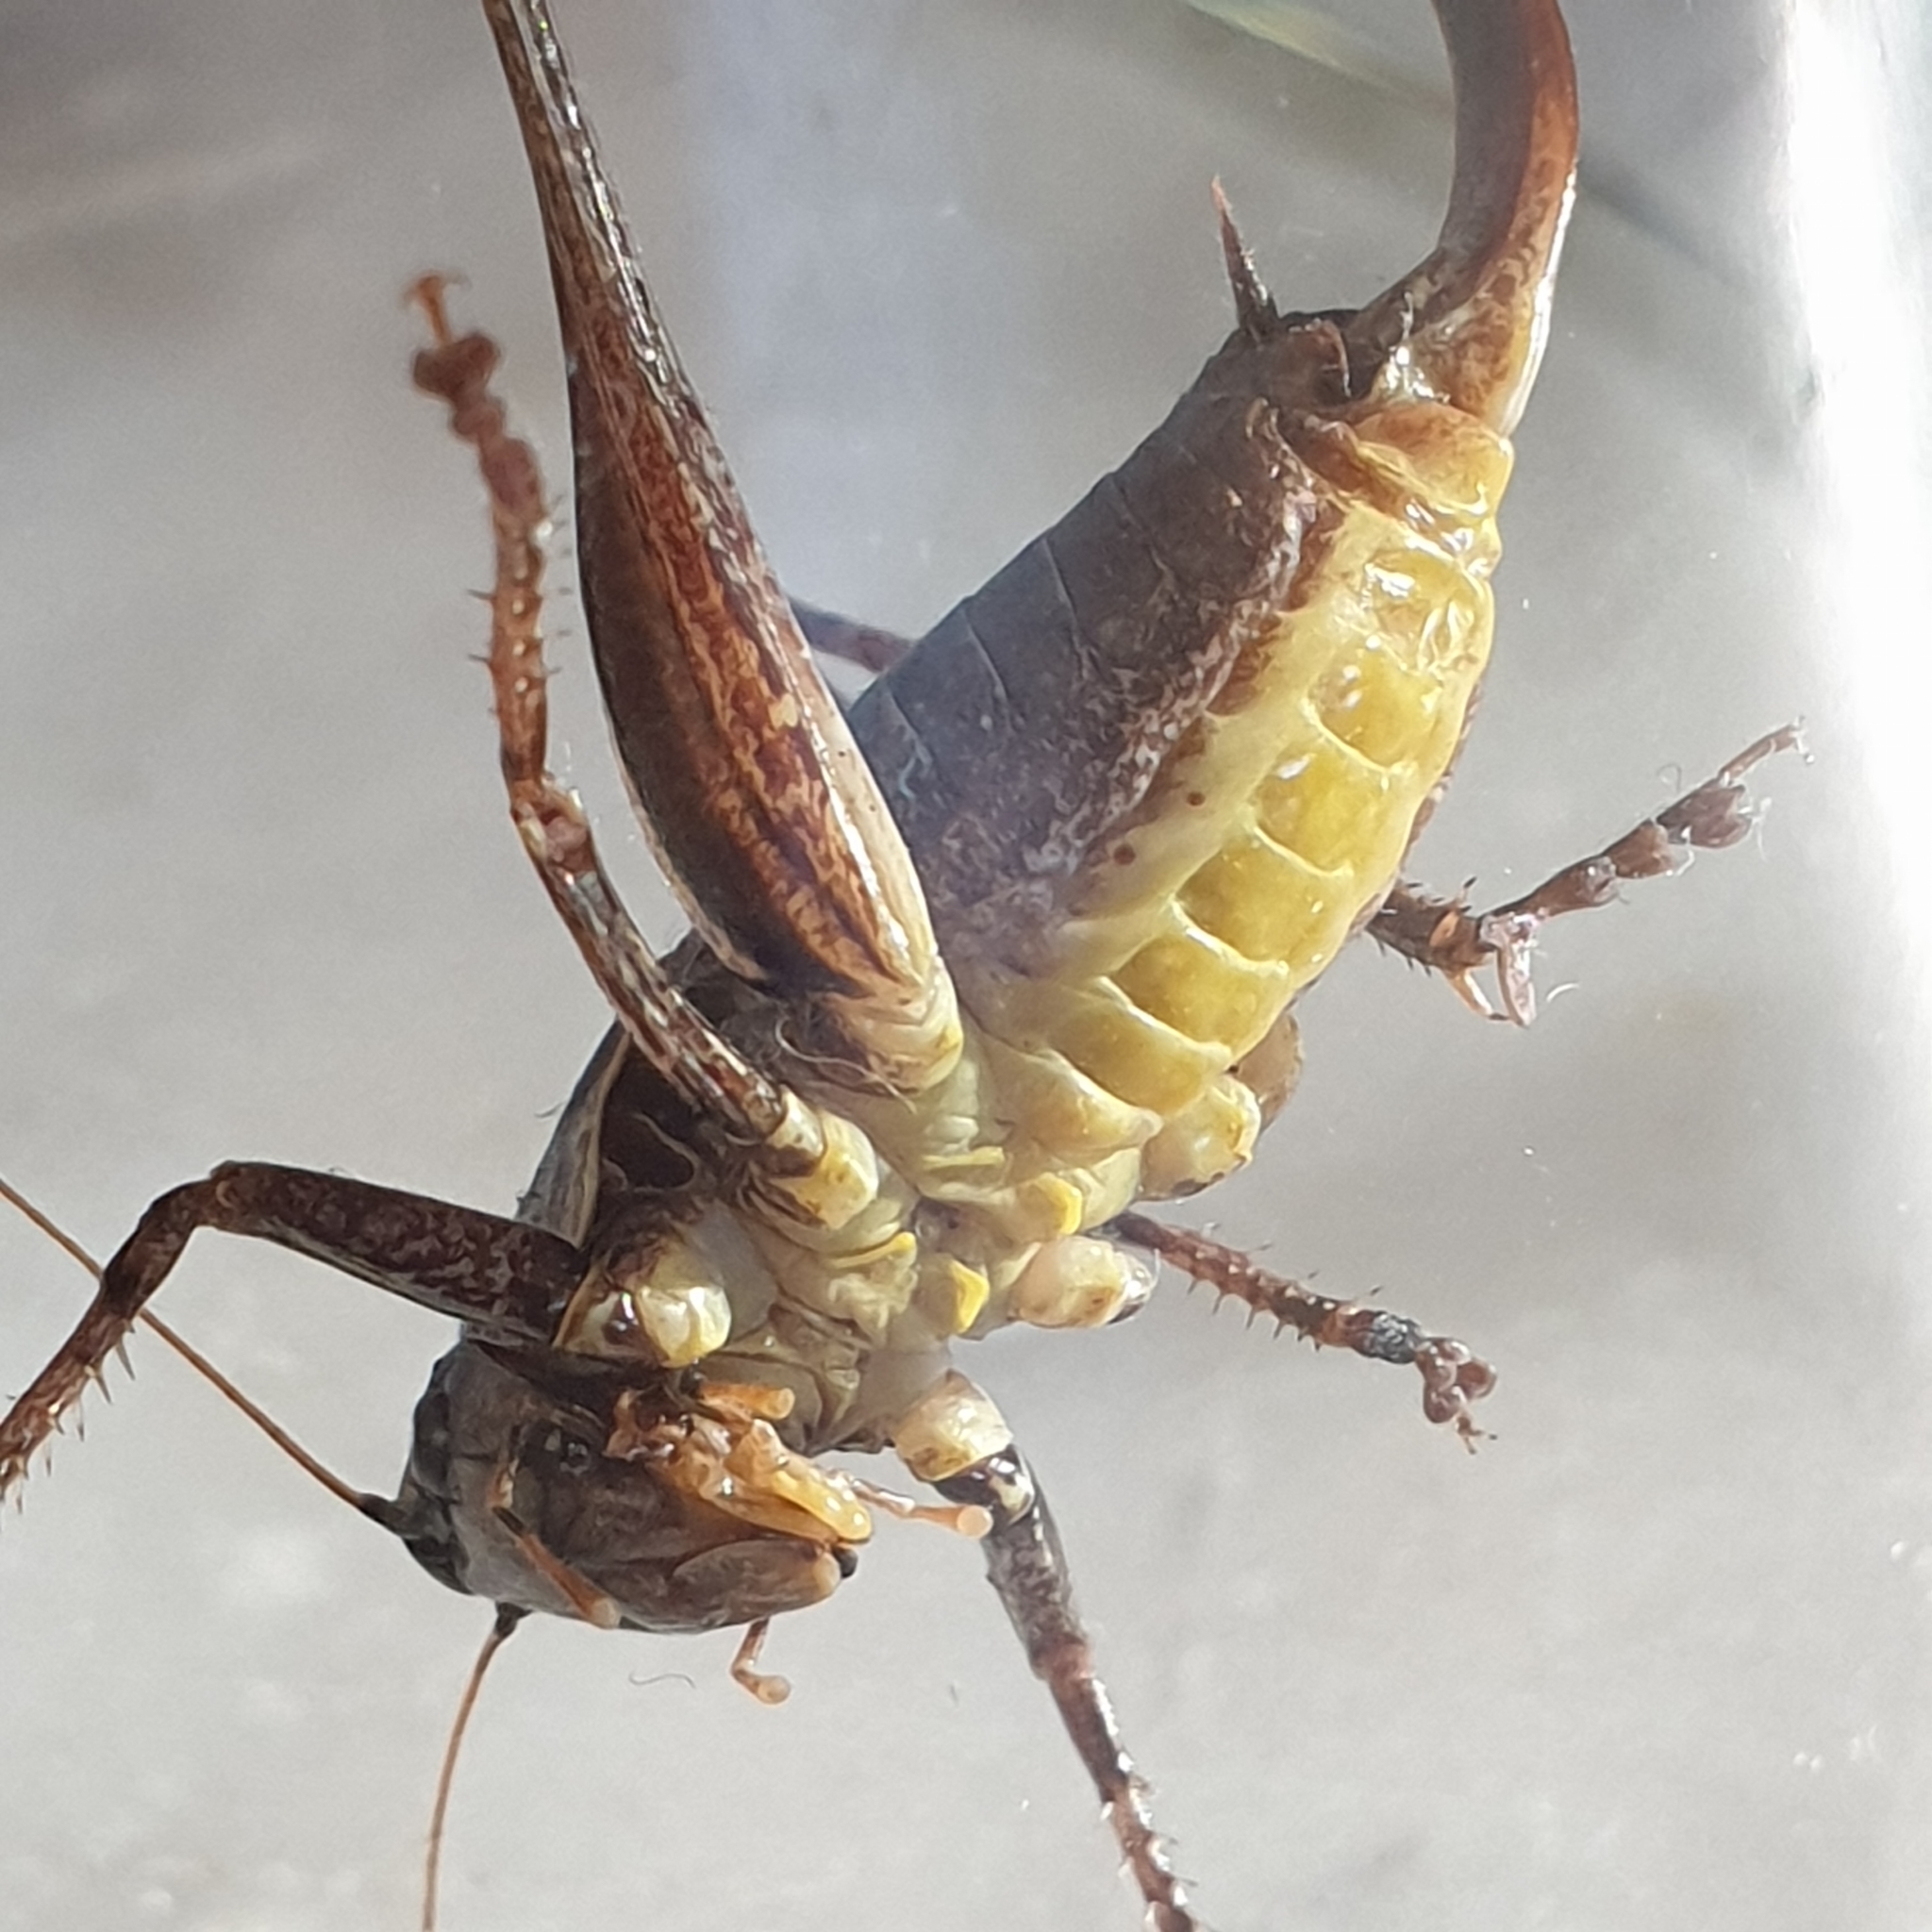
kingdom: Animalia
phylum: Arthropoda
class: Insecta
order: Orthoptera
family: Tettigoniidae
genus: Pholidoptera
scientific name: Pholidoptera griseoaptera
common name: Dark bush-cricket
